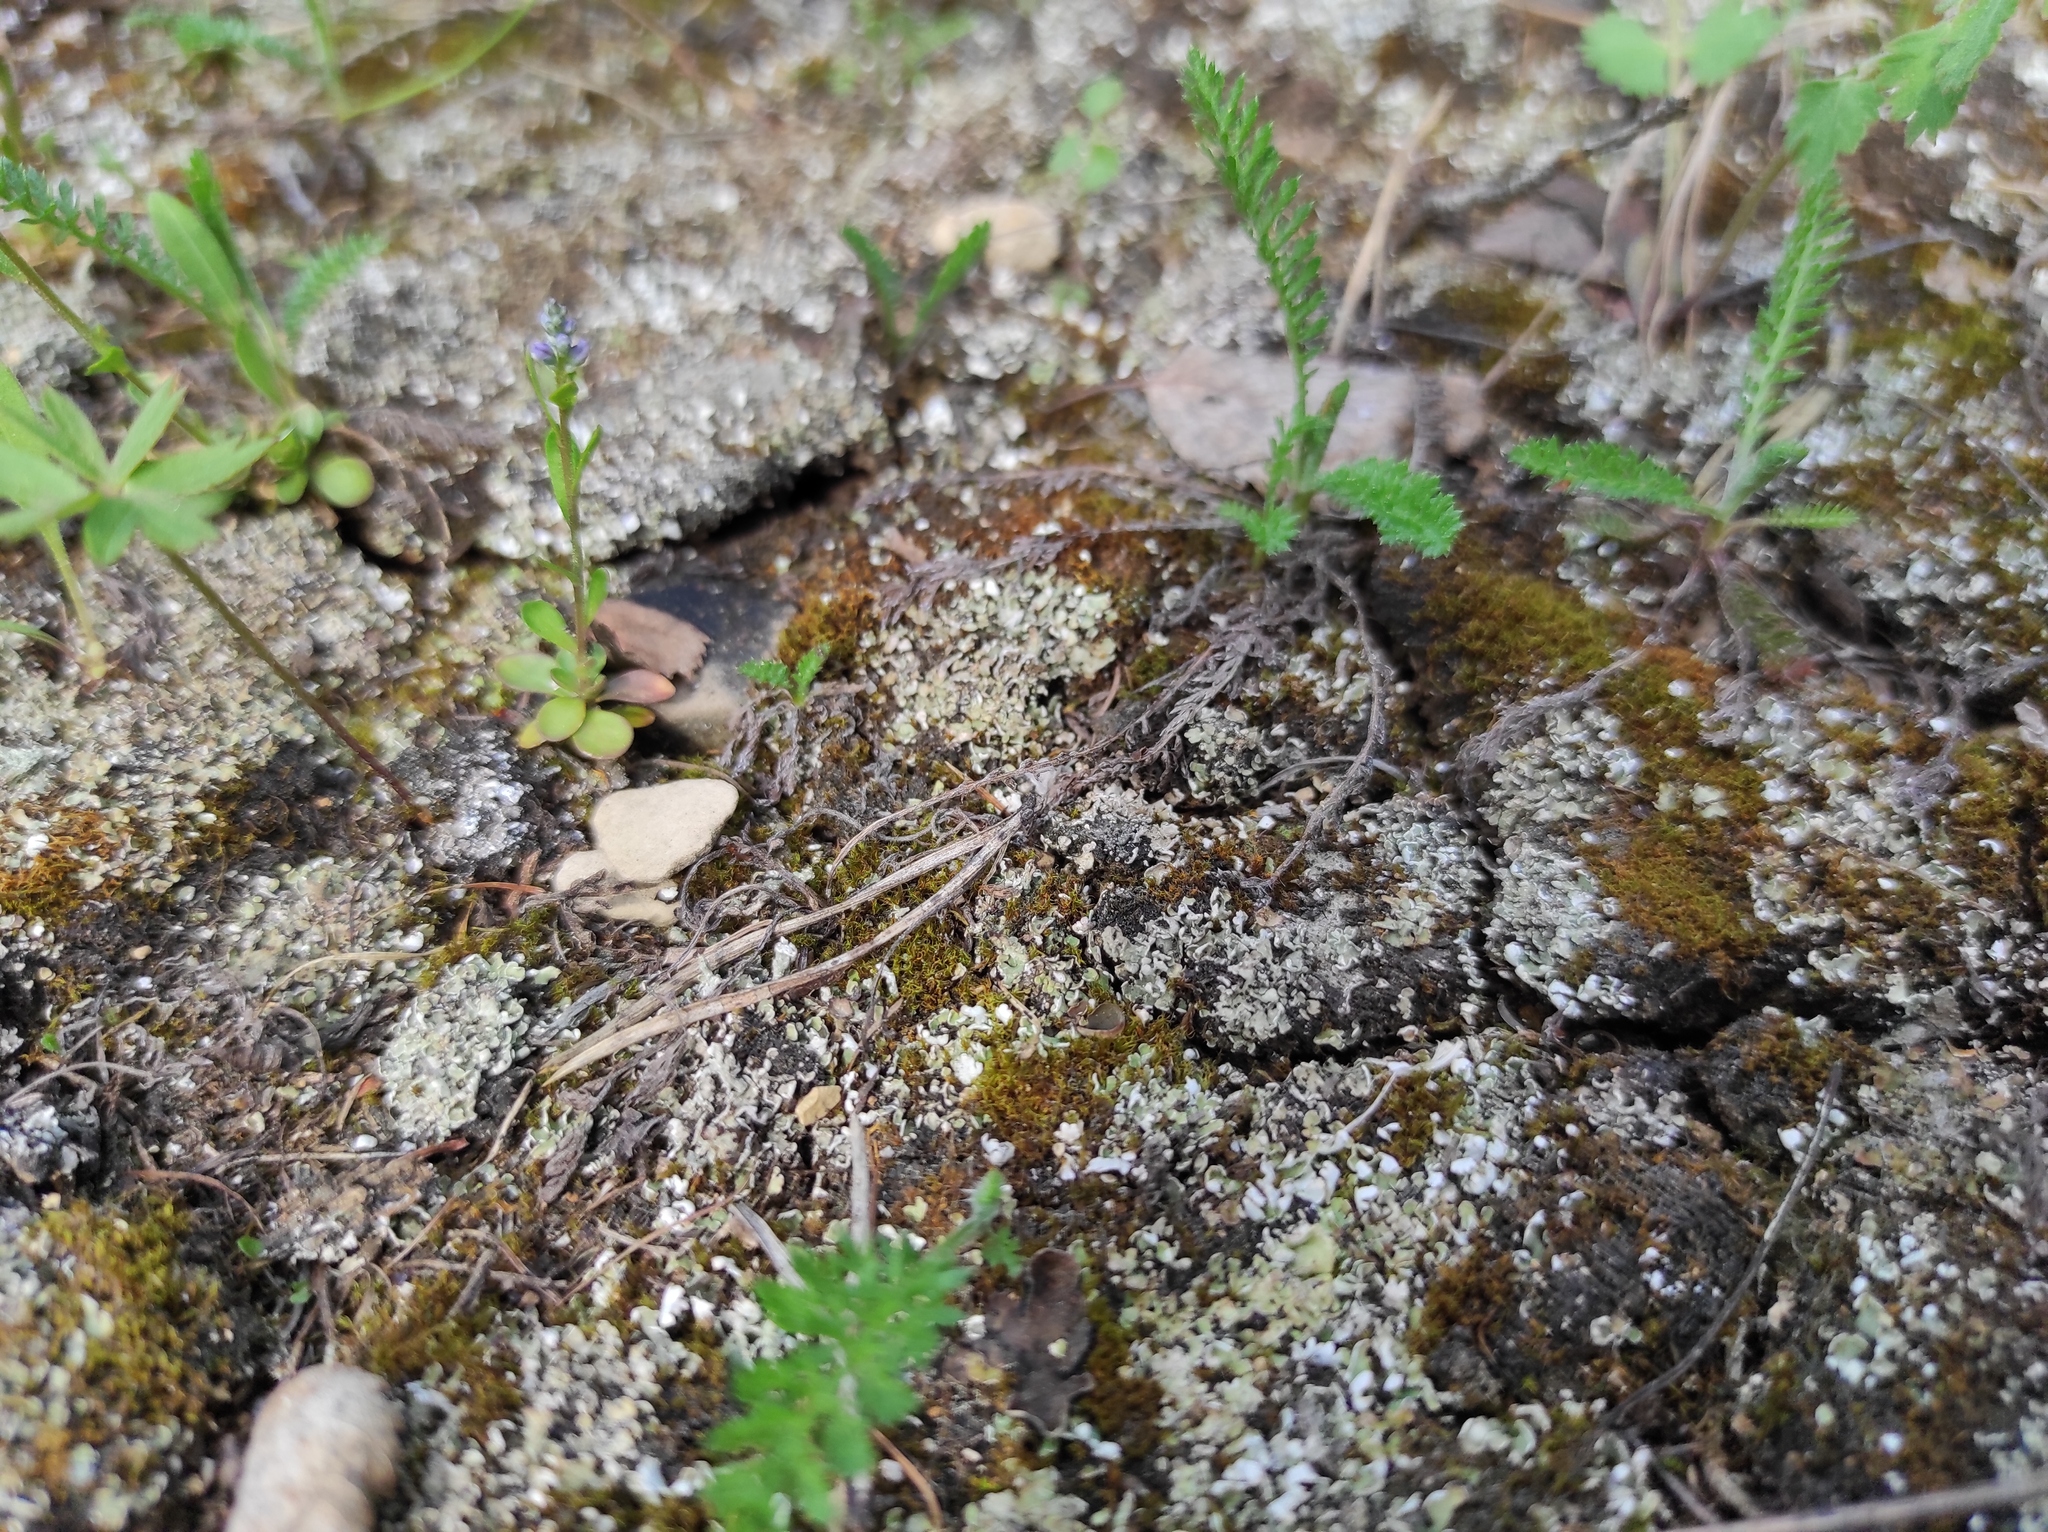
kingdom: Animalia
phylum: Arthropoda
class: Insecta
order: Lepidoptera
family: Nymphalidae
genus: Polygonia
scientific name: Polygonia c-album
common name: Comma
